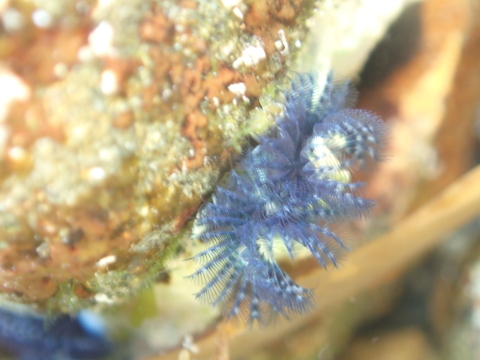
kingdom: Animalia
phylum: Annelida
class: Polychaeta
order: Sabellida
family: Serpulidae
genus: Spirobranchus
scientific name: Spirobranchus cariniferus
